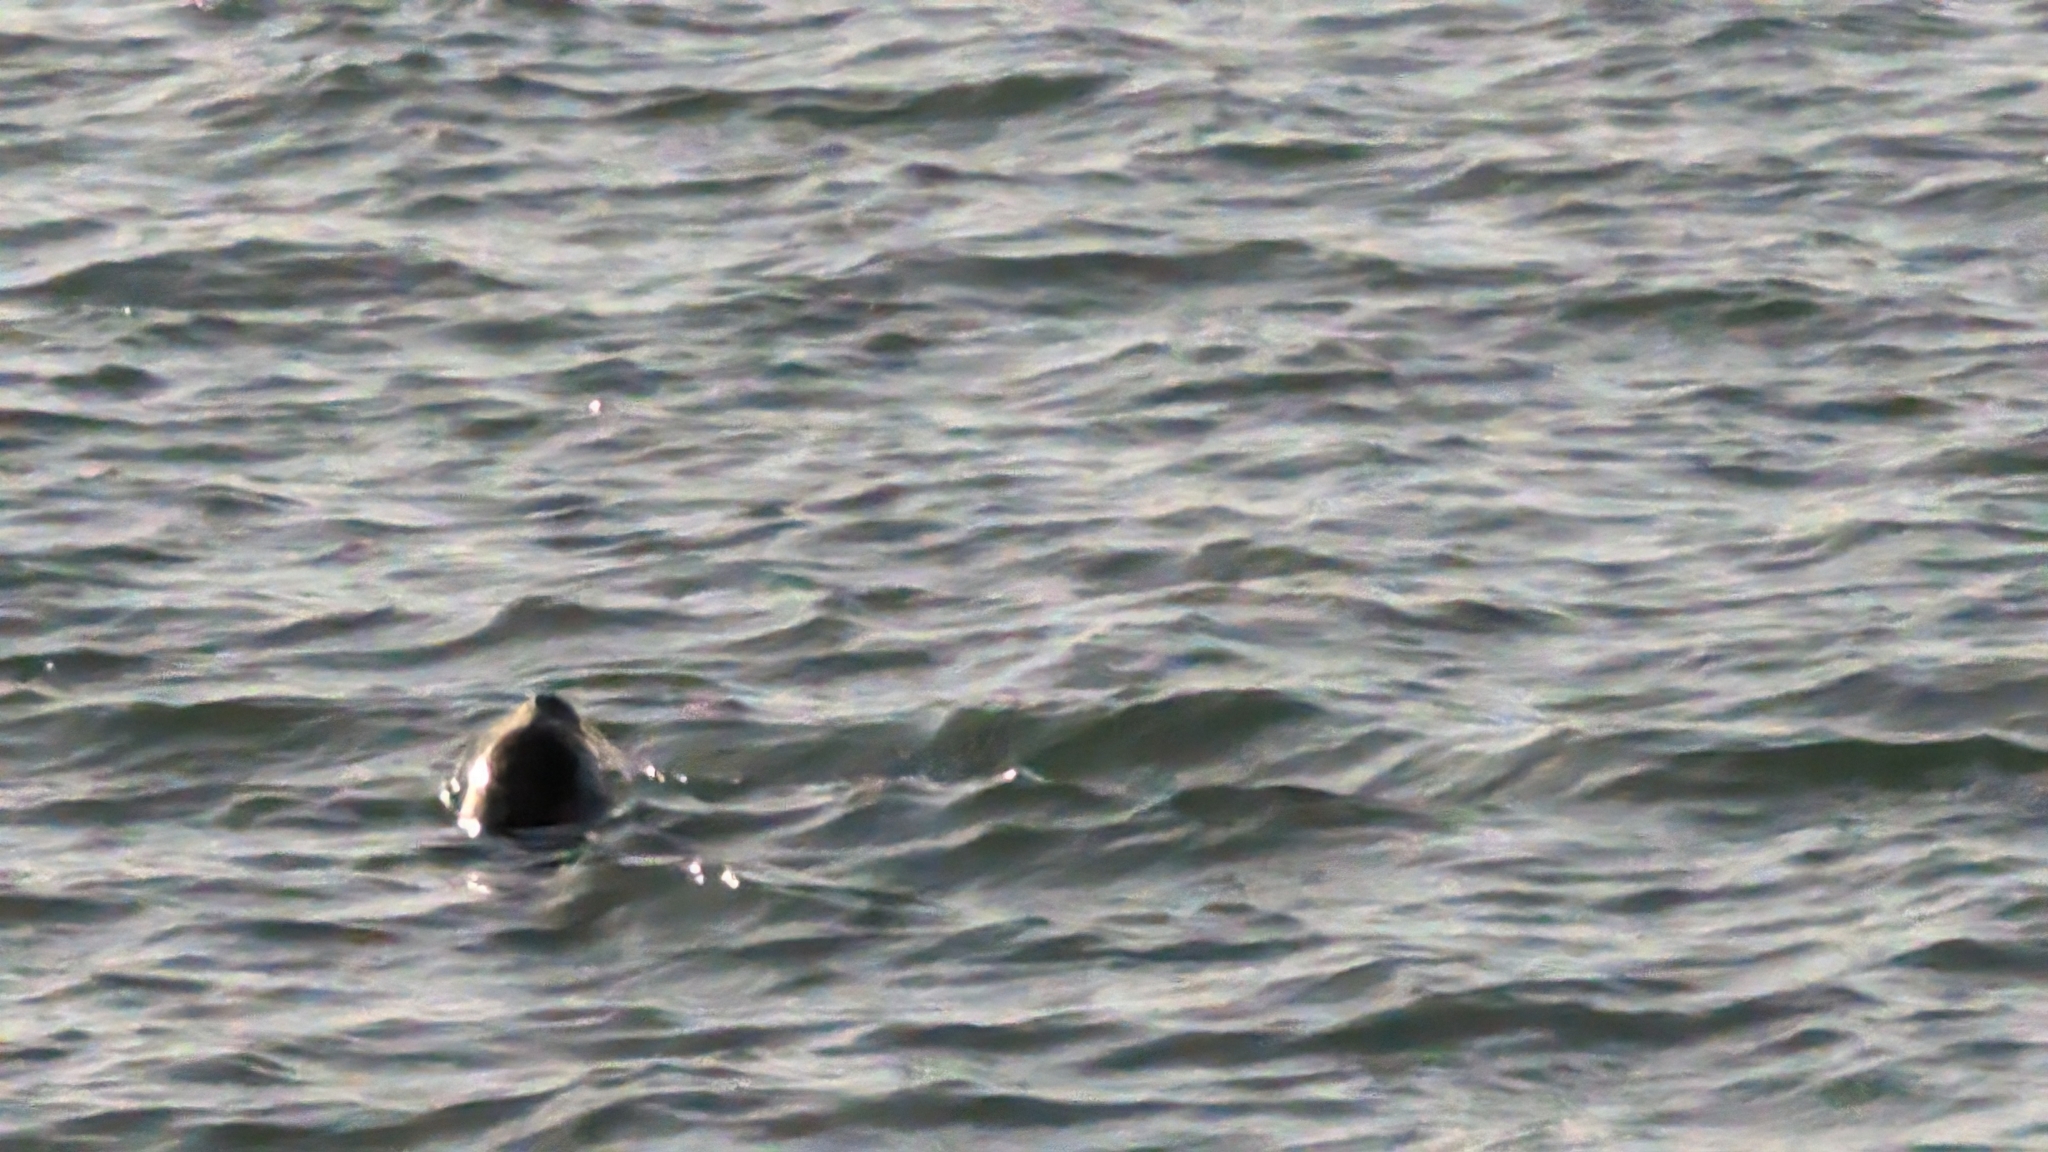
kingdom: Animalia
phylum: Chordata
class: Mammalia
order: Carnivora
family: Phocidae
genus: Phoca
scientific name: Phoca vitulina
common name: Harbor seal
